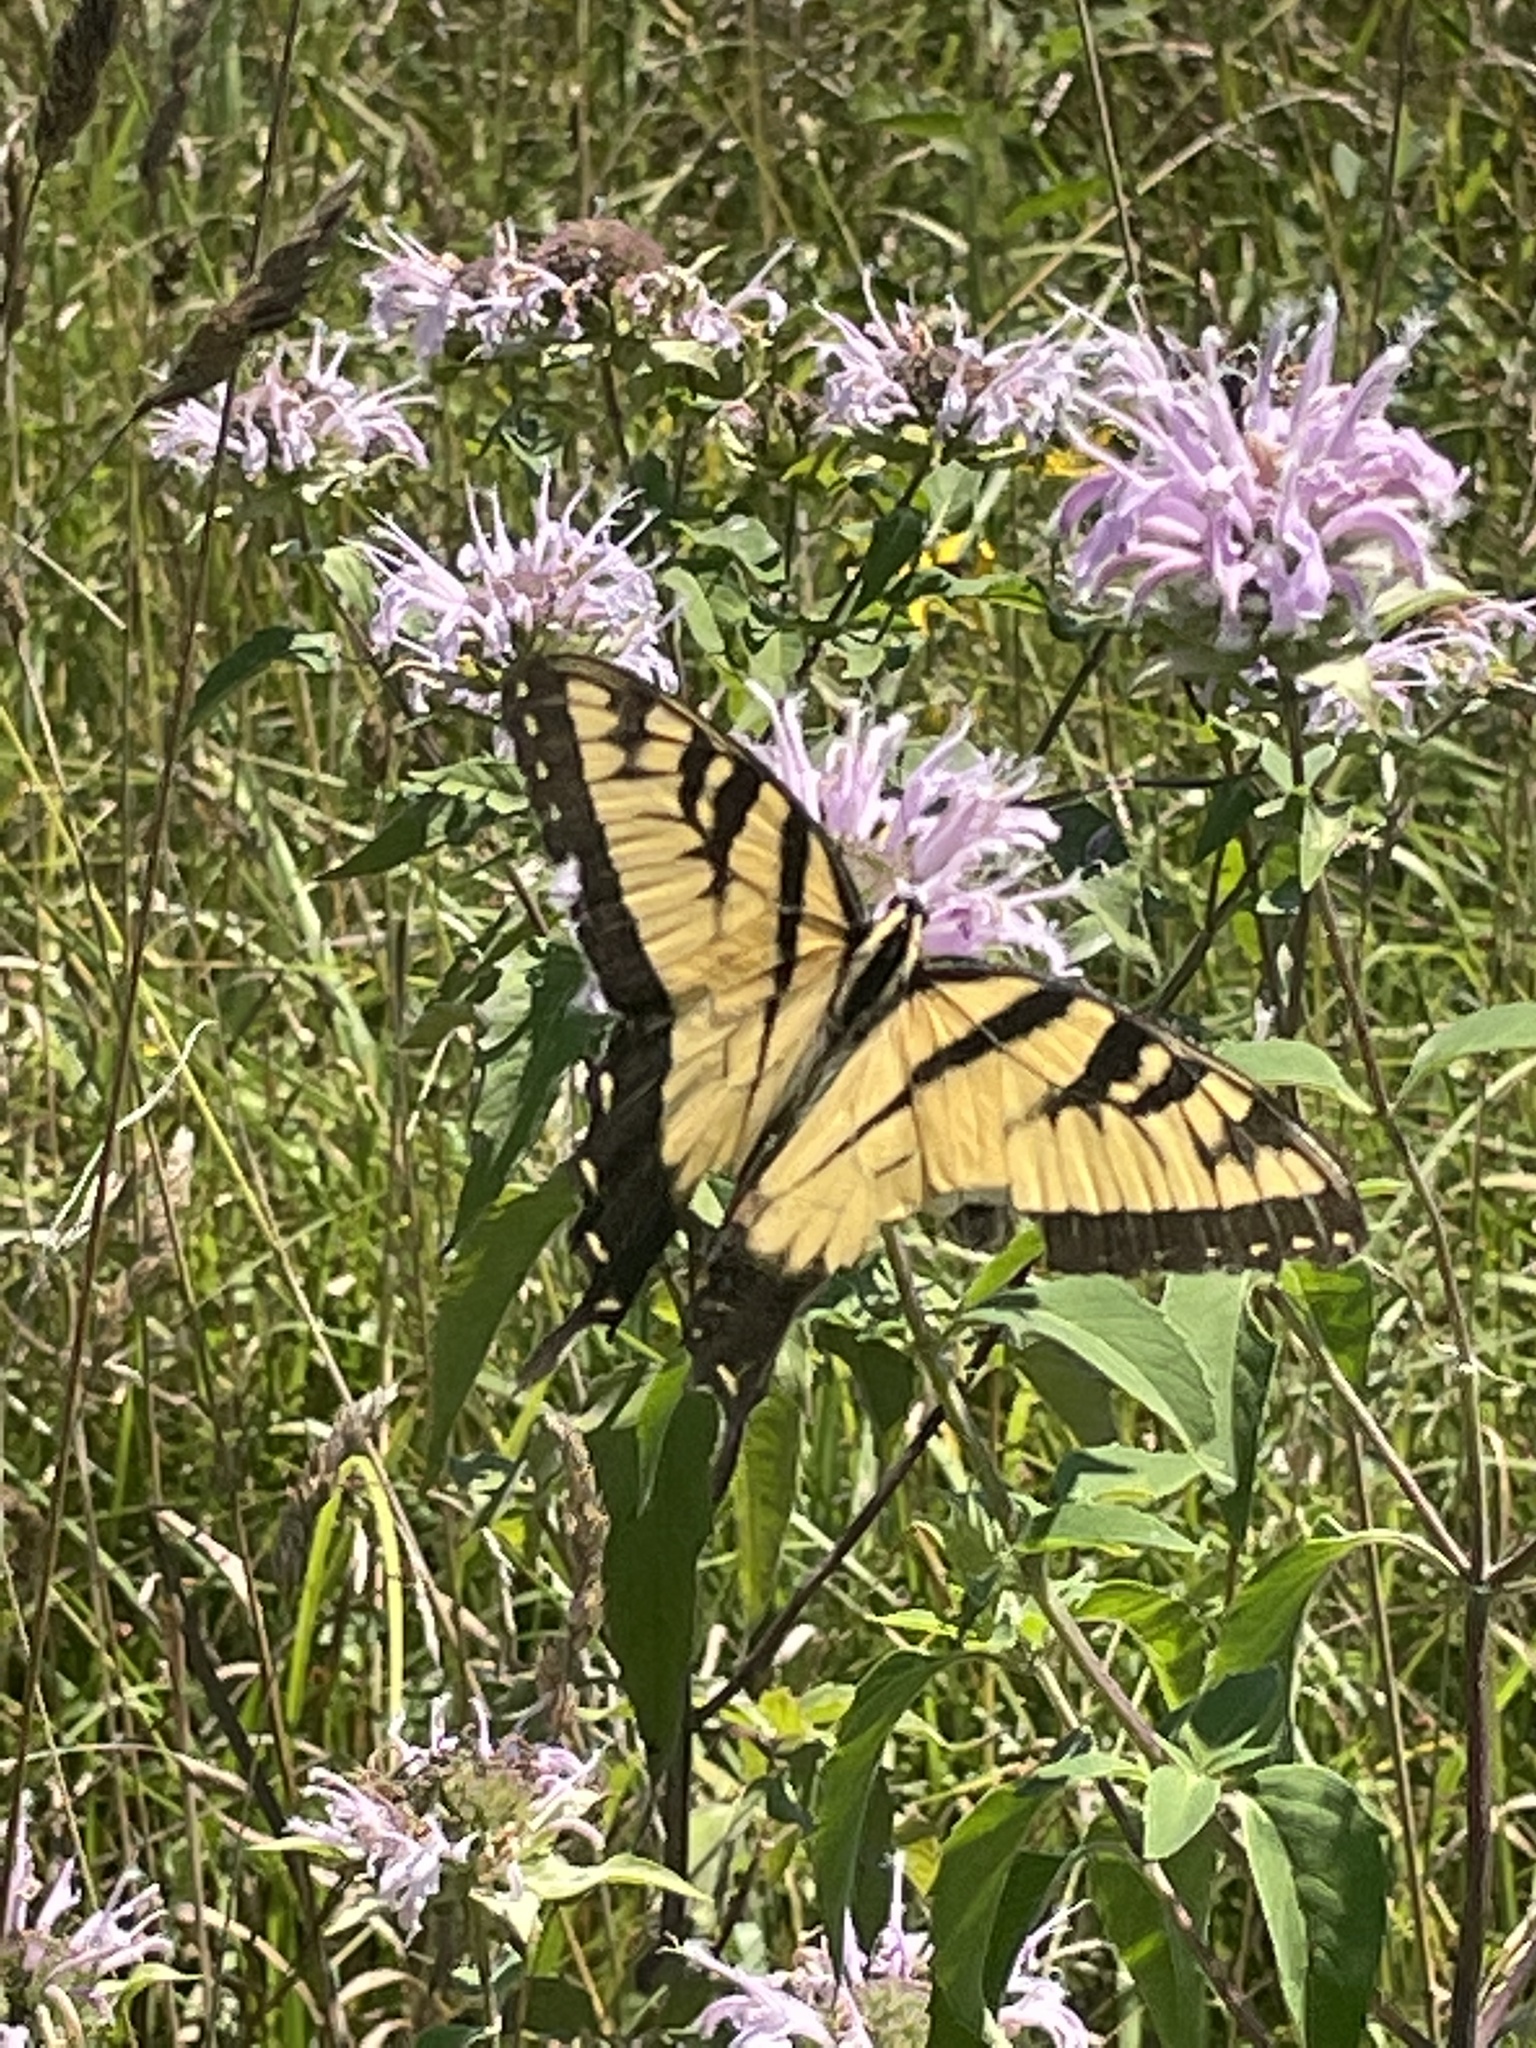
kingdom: Animalia
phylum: Arthropoda
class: Insecta
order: Lepidoptera
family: Papilionidae
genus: Papilio
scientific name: Papilio glaucus
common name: Tiger swallowtail
